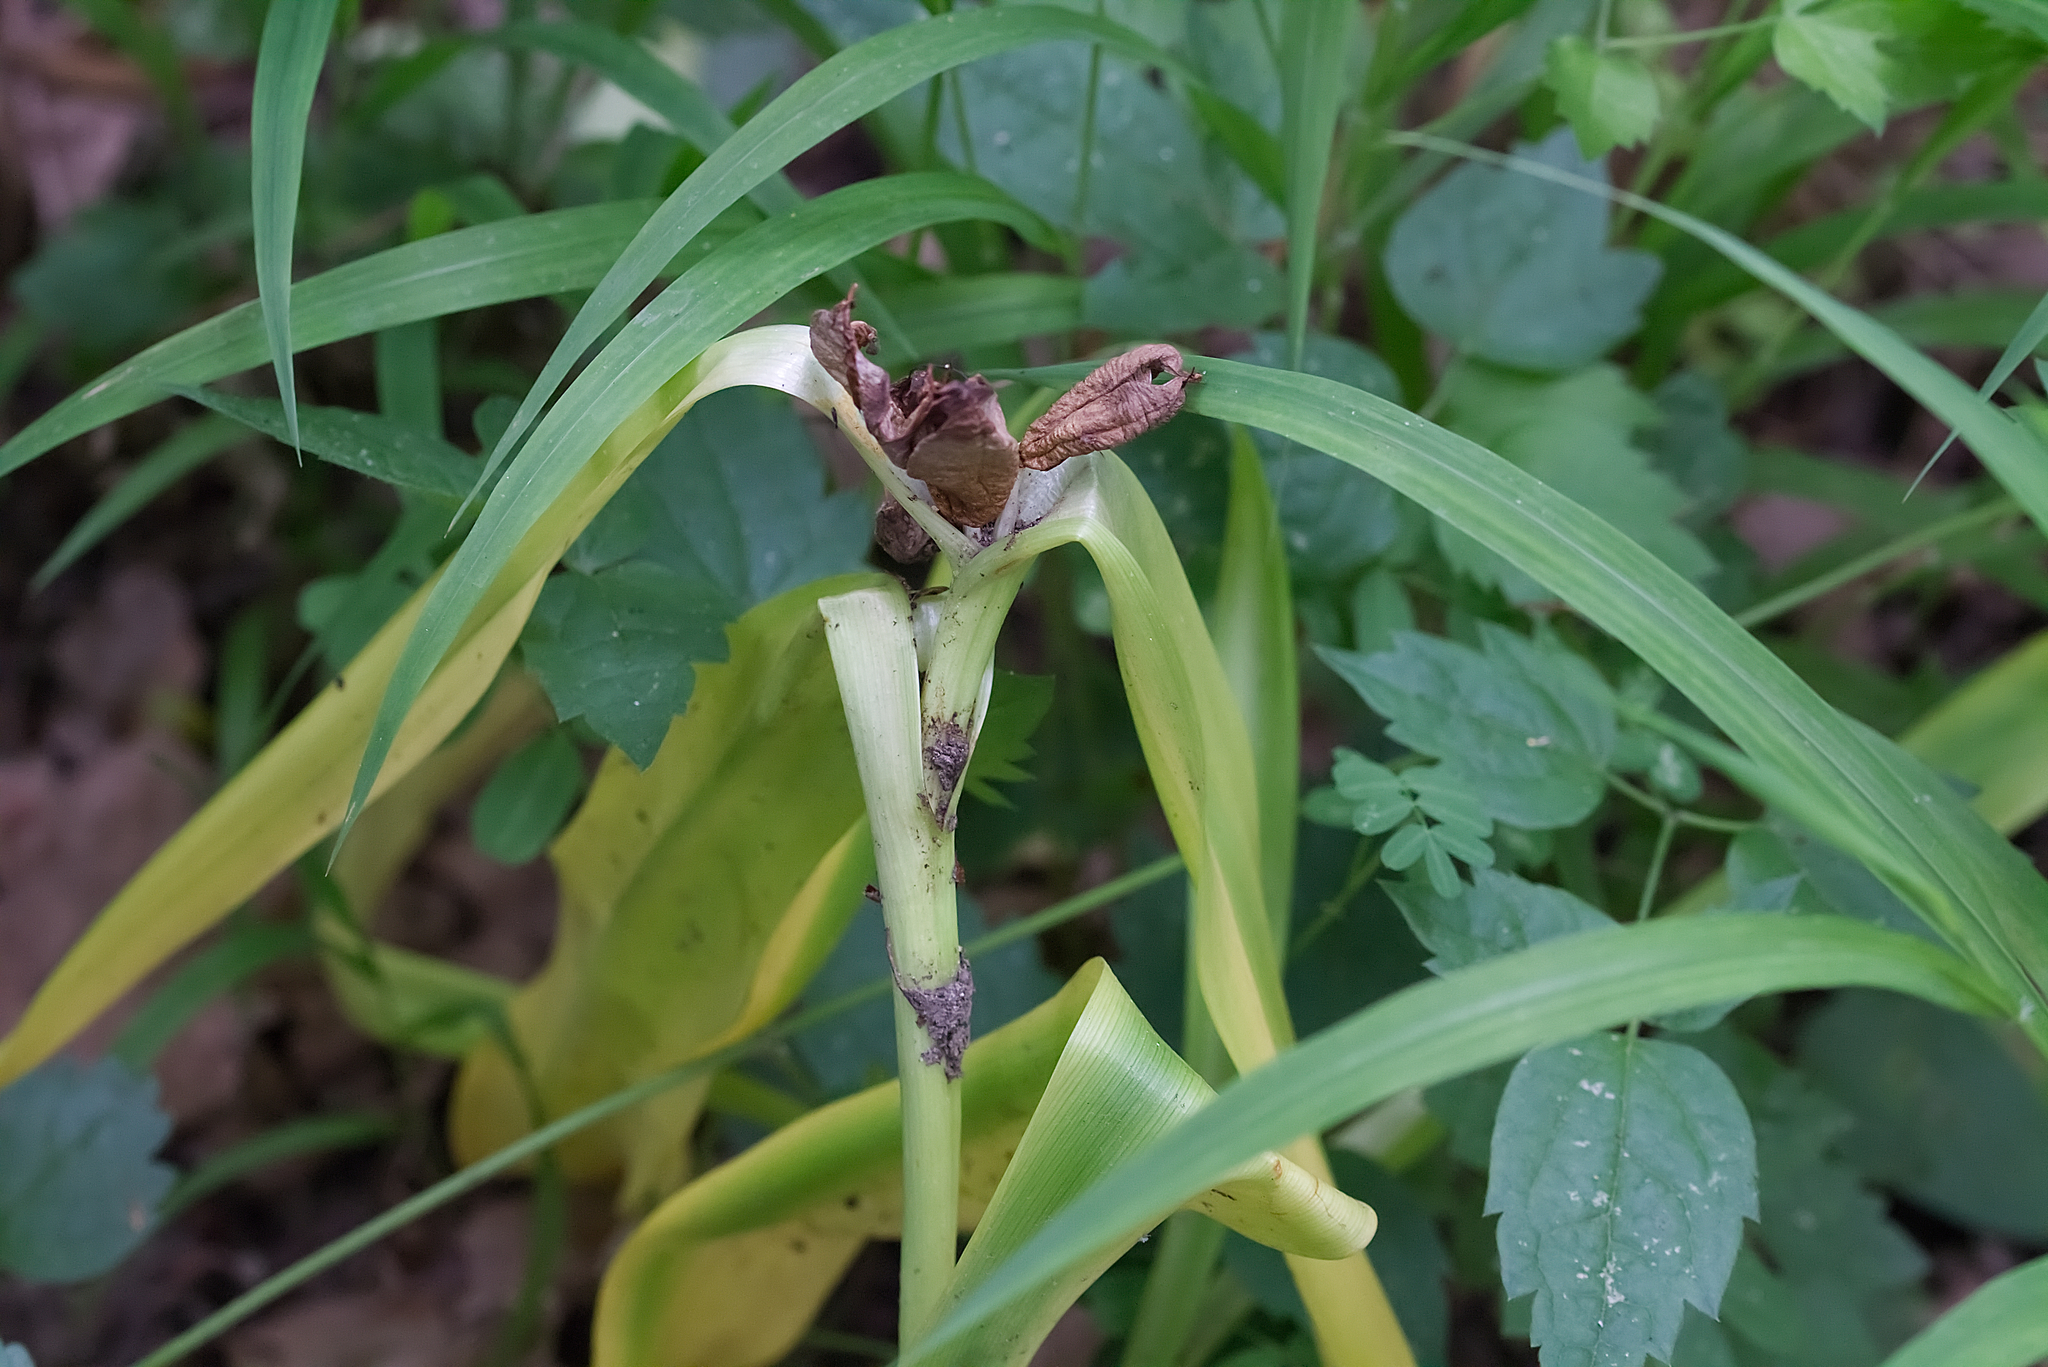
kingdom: Plantae
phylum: Tracheophyta
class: Liliopsida
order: Liliales
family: Colchicaceae
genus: Colchicum
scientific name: Colchicum autumnale
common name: Autumn crocus
